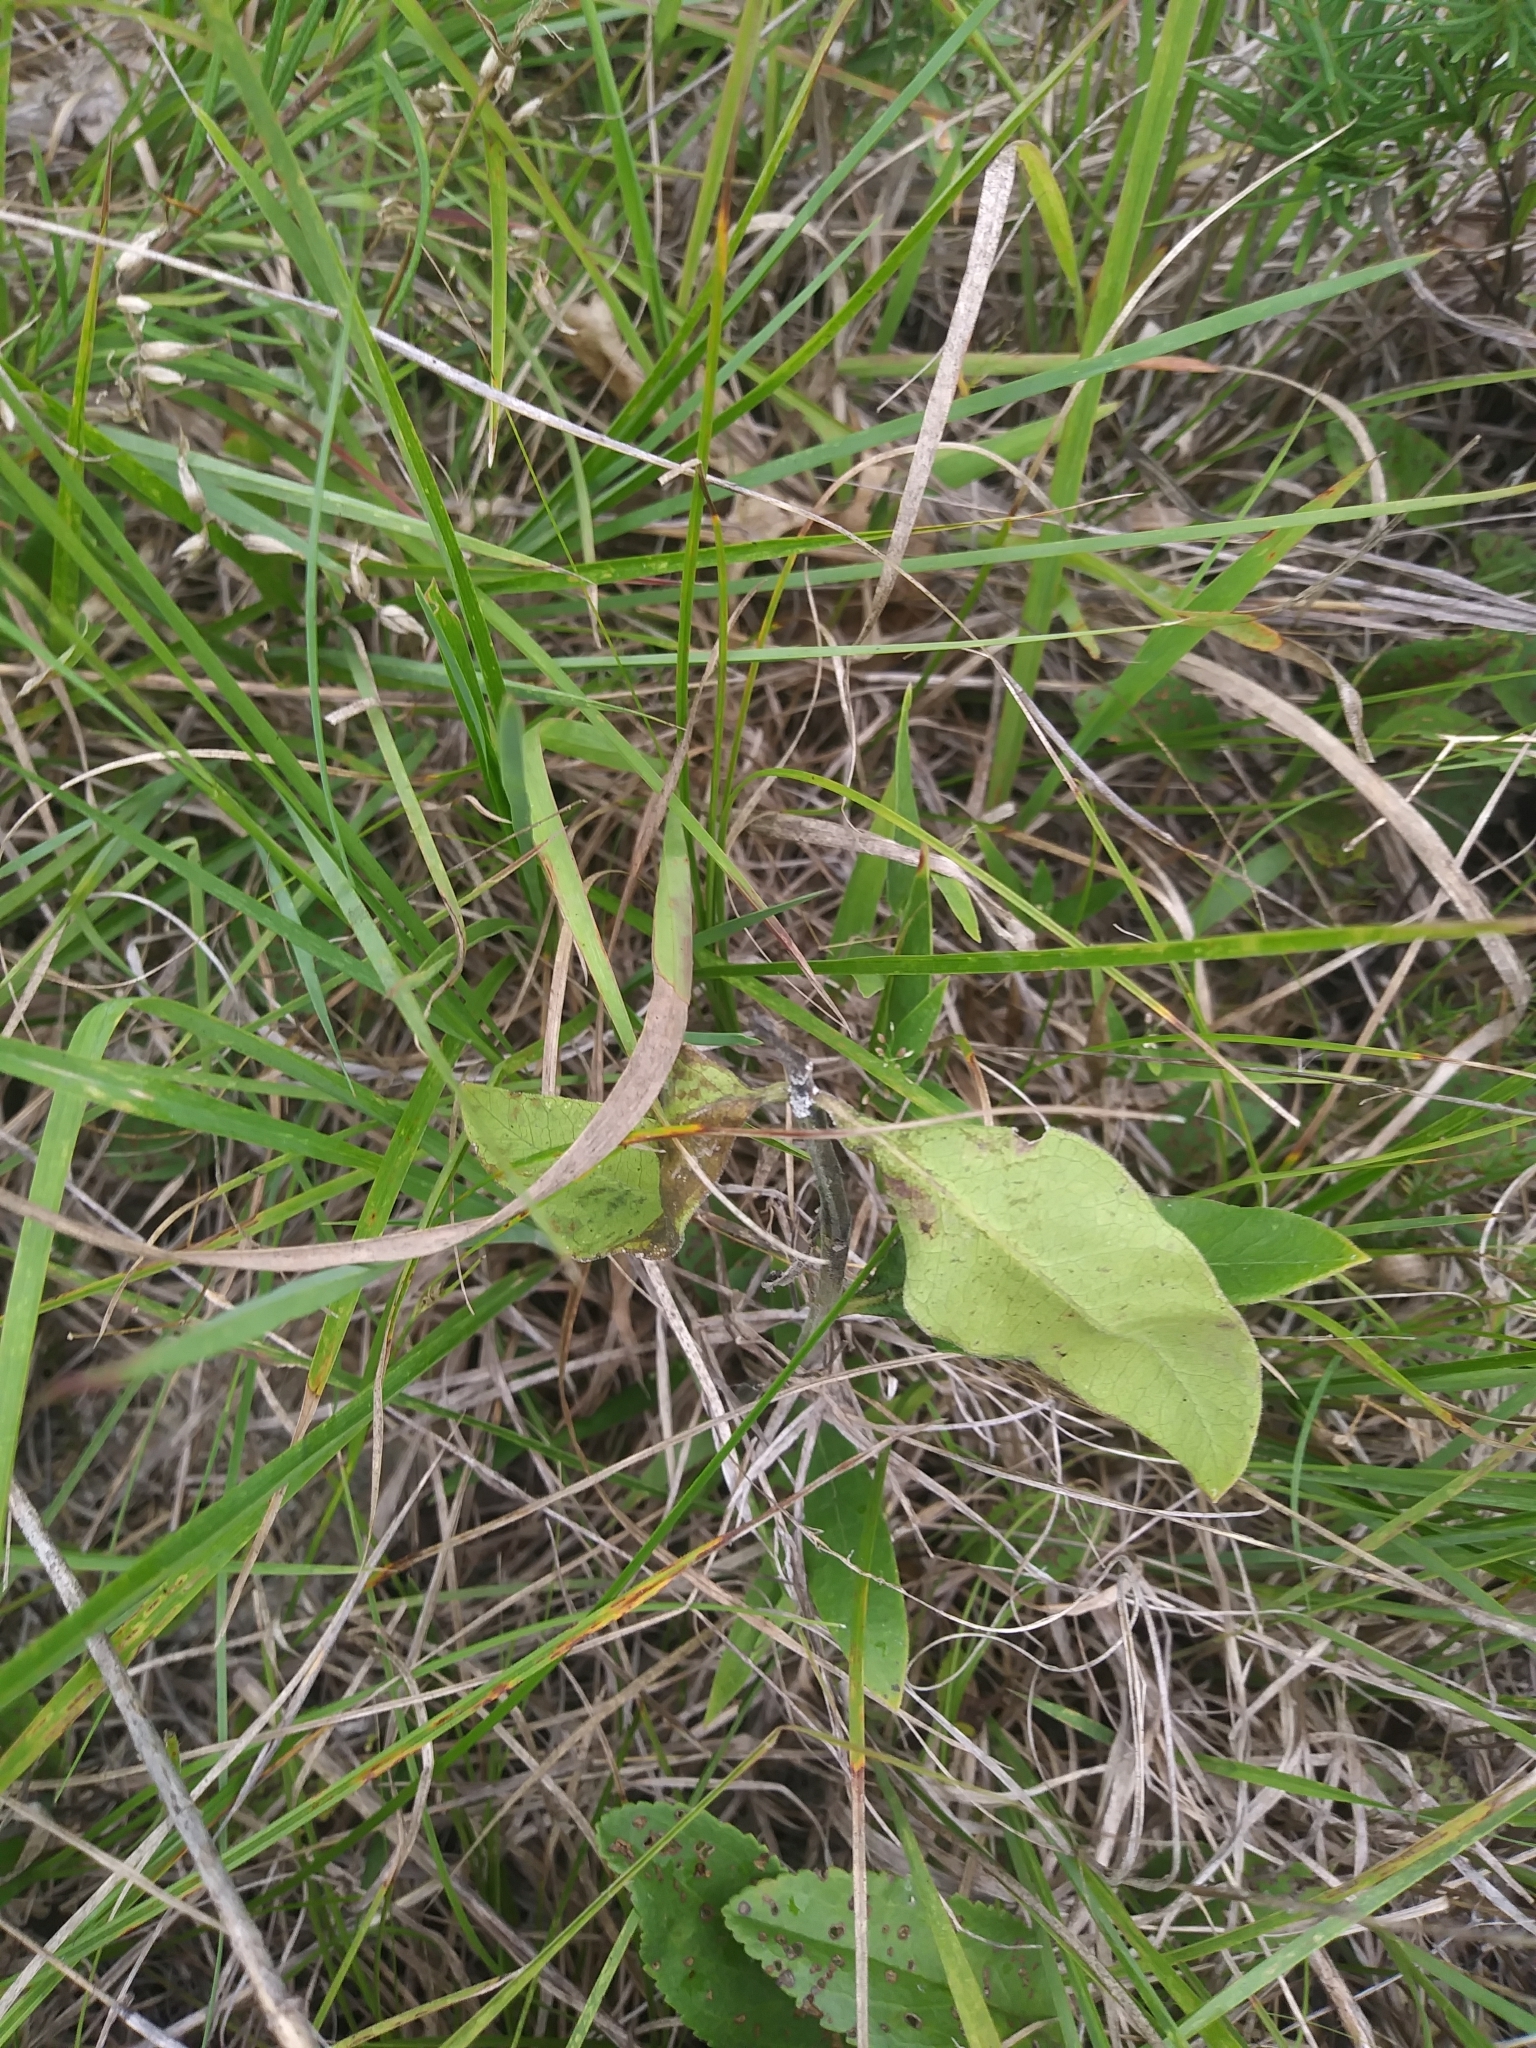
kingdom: Plantae
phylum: Tracheophyta
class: Magnoliopsida
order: Gentianales
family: Apocynaceae
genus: Asclepias
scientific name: Asclepias viridiflora
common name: Green comet milkweed
